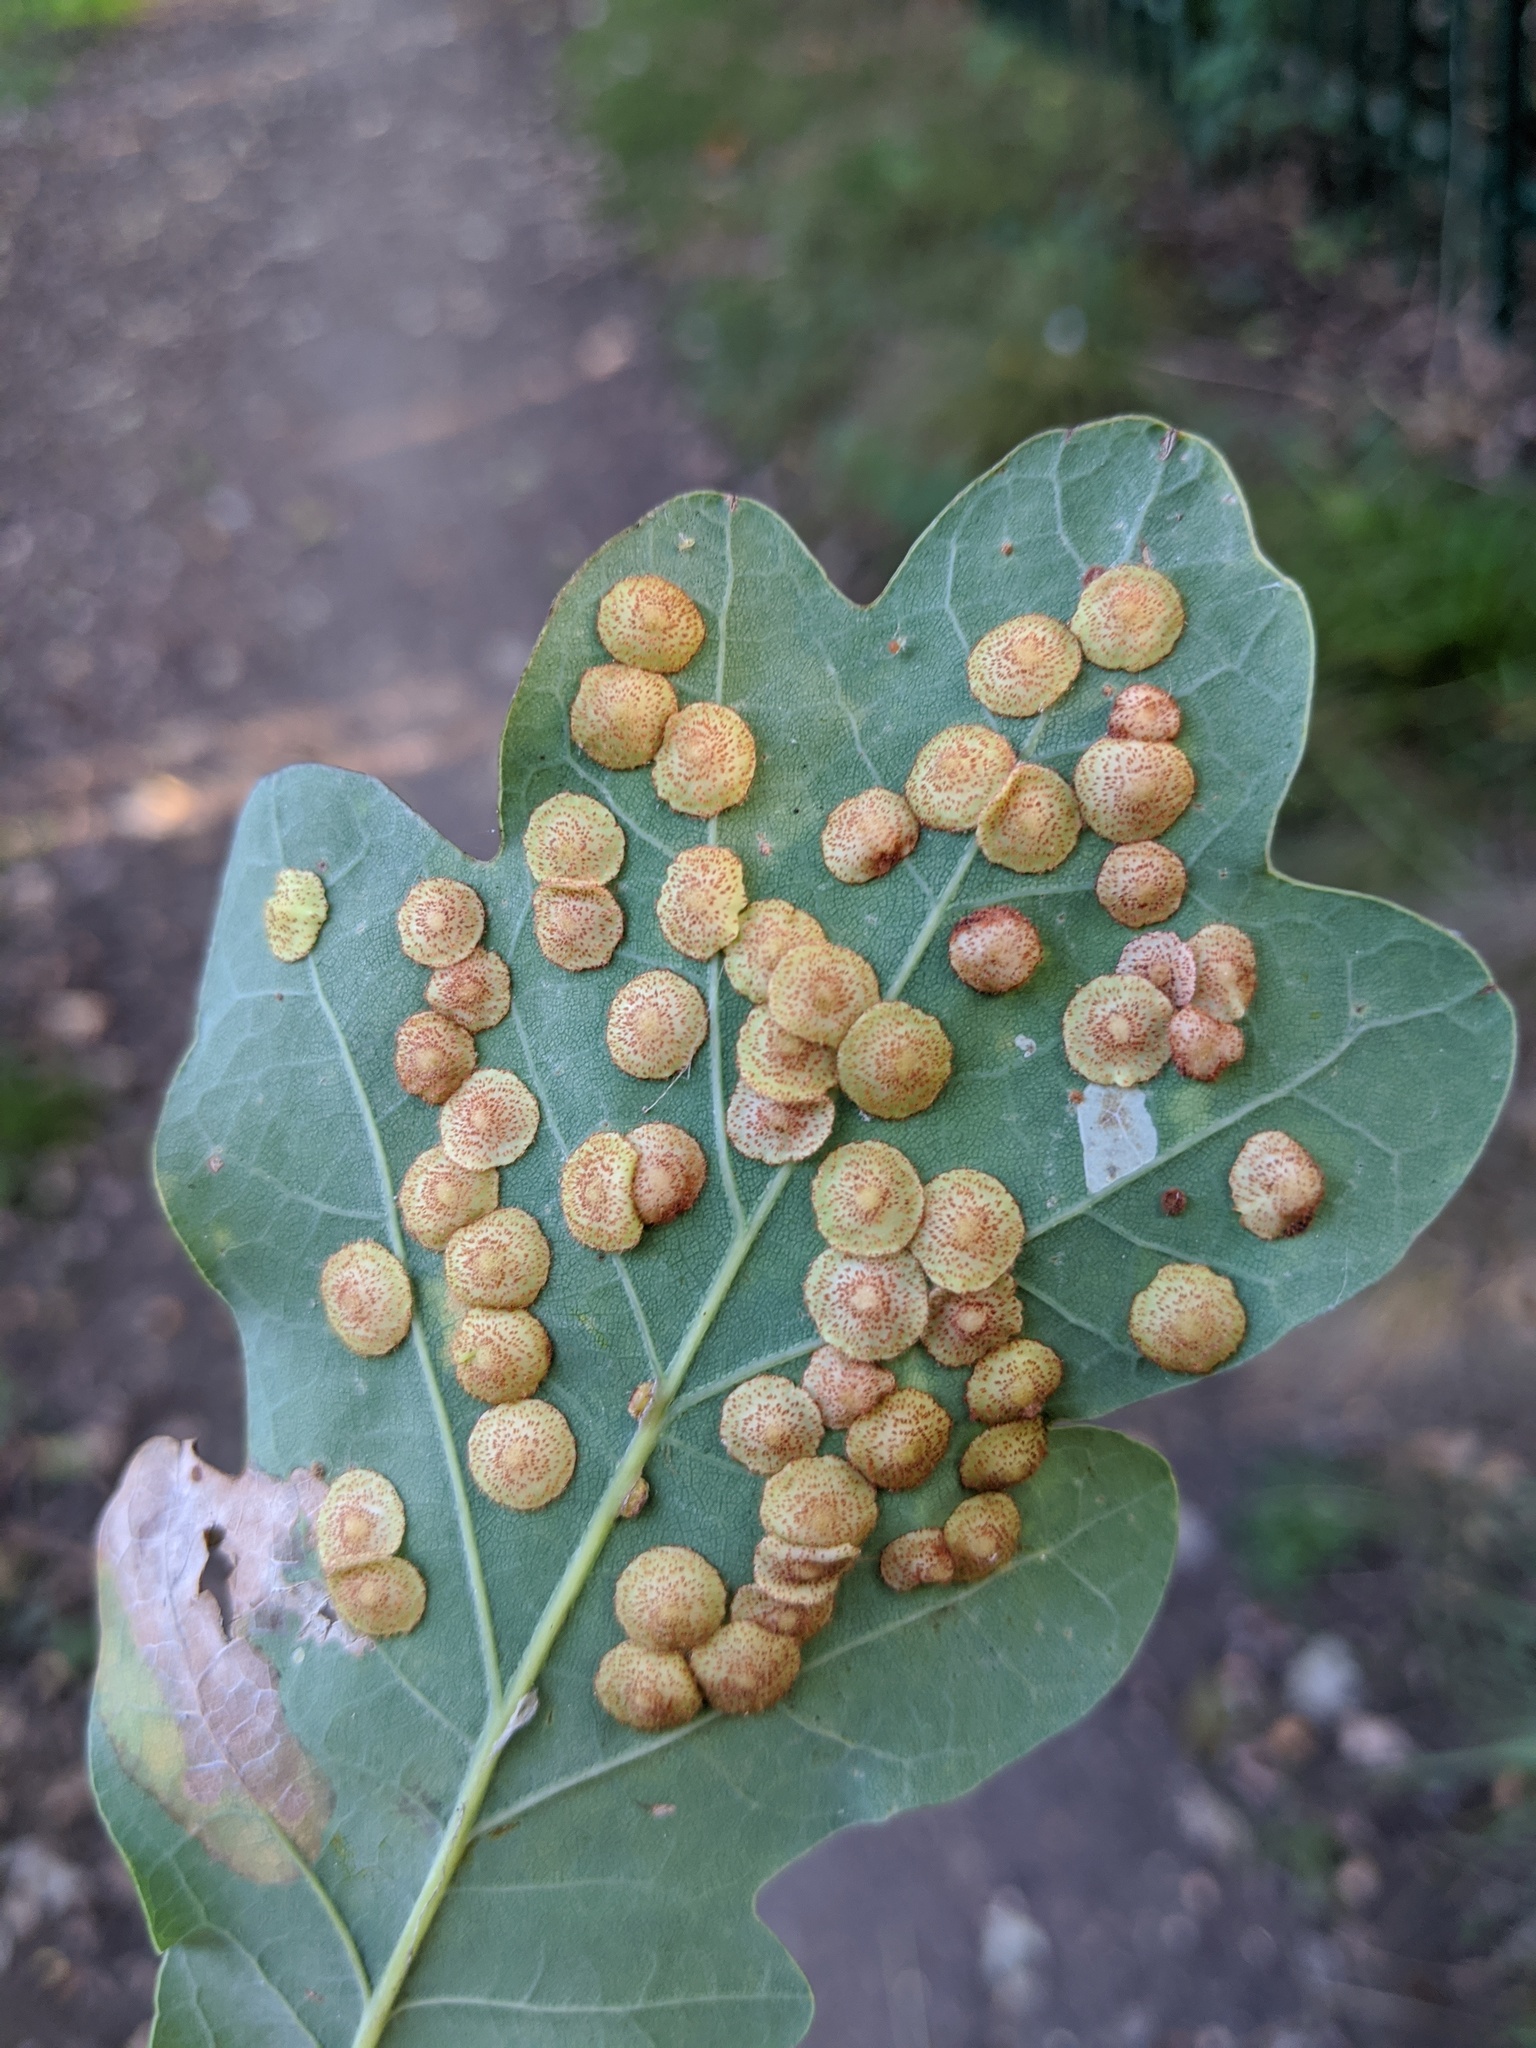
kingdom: Animalia
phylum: Arthropoda
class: Insecta
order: Hymenoptera
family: Cynipidae
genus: Neuroterus
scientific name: Neuroterus quercusbaccarum
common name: Common spangle gall
